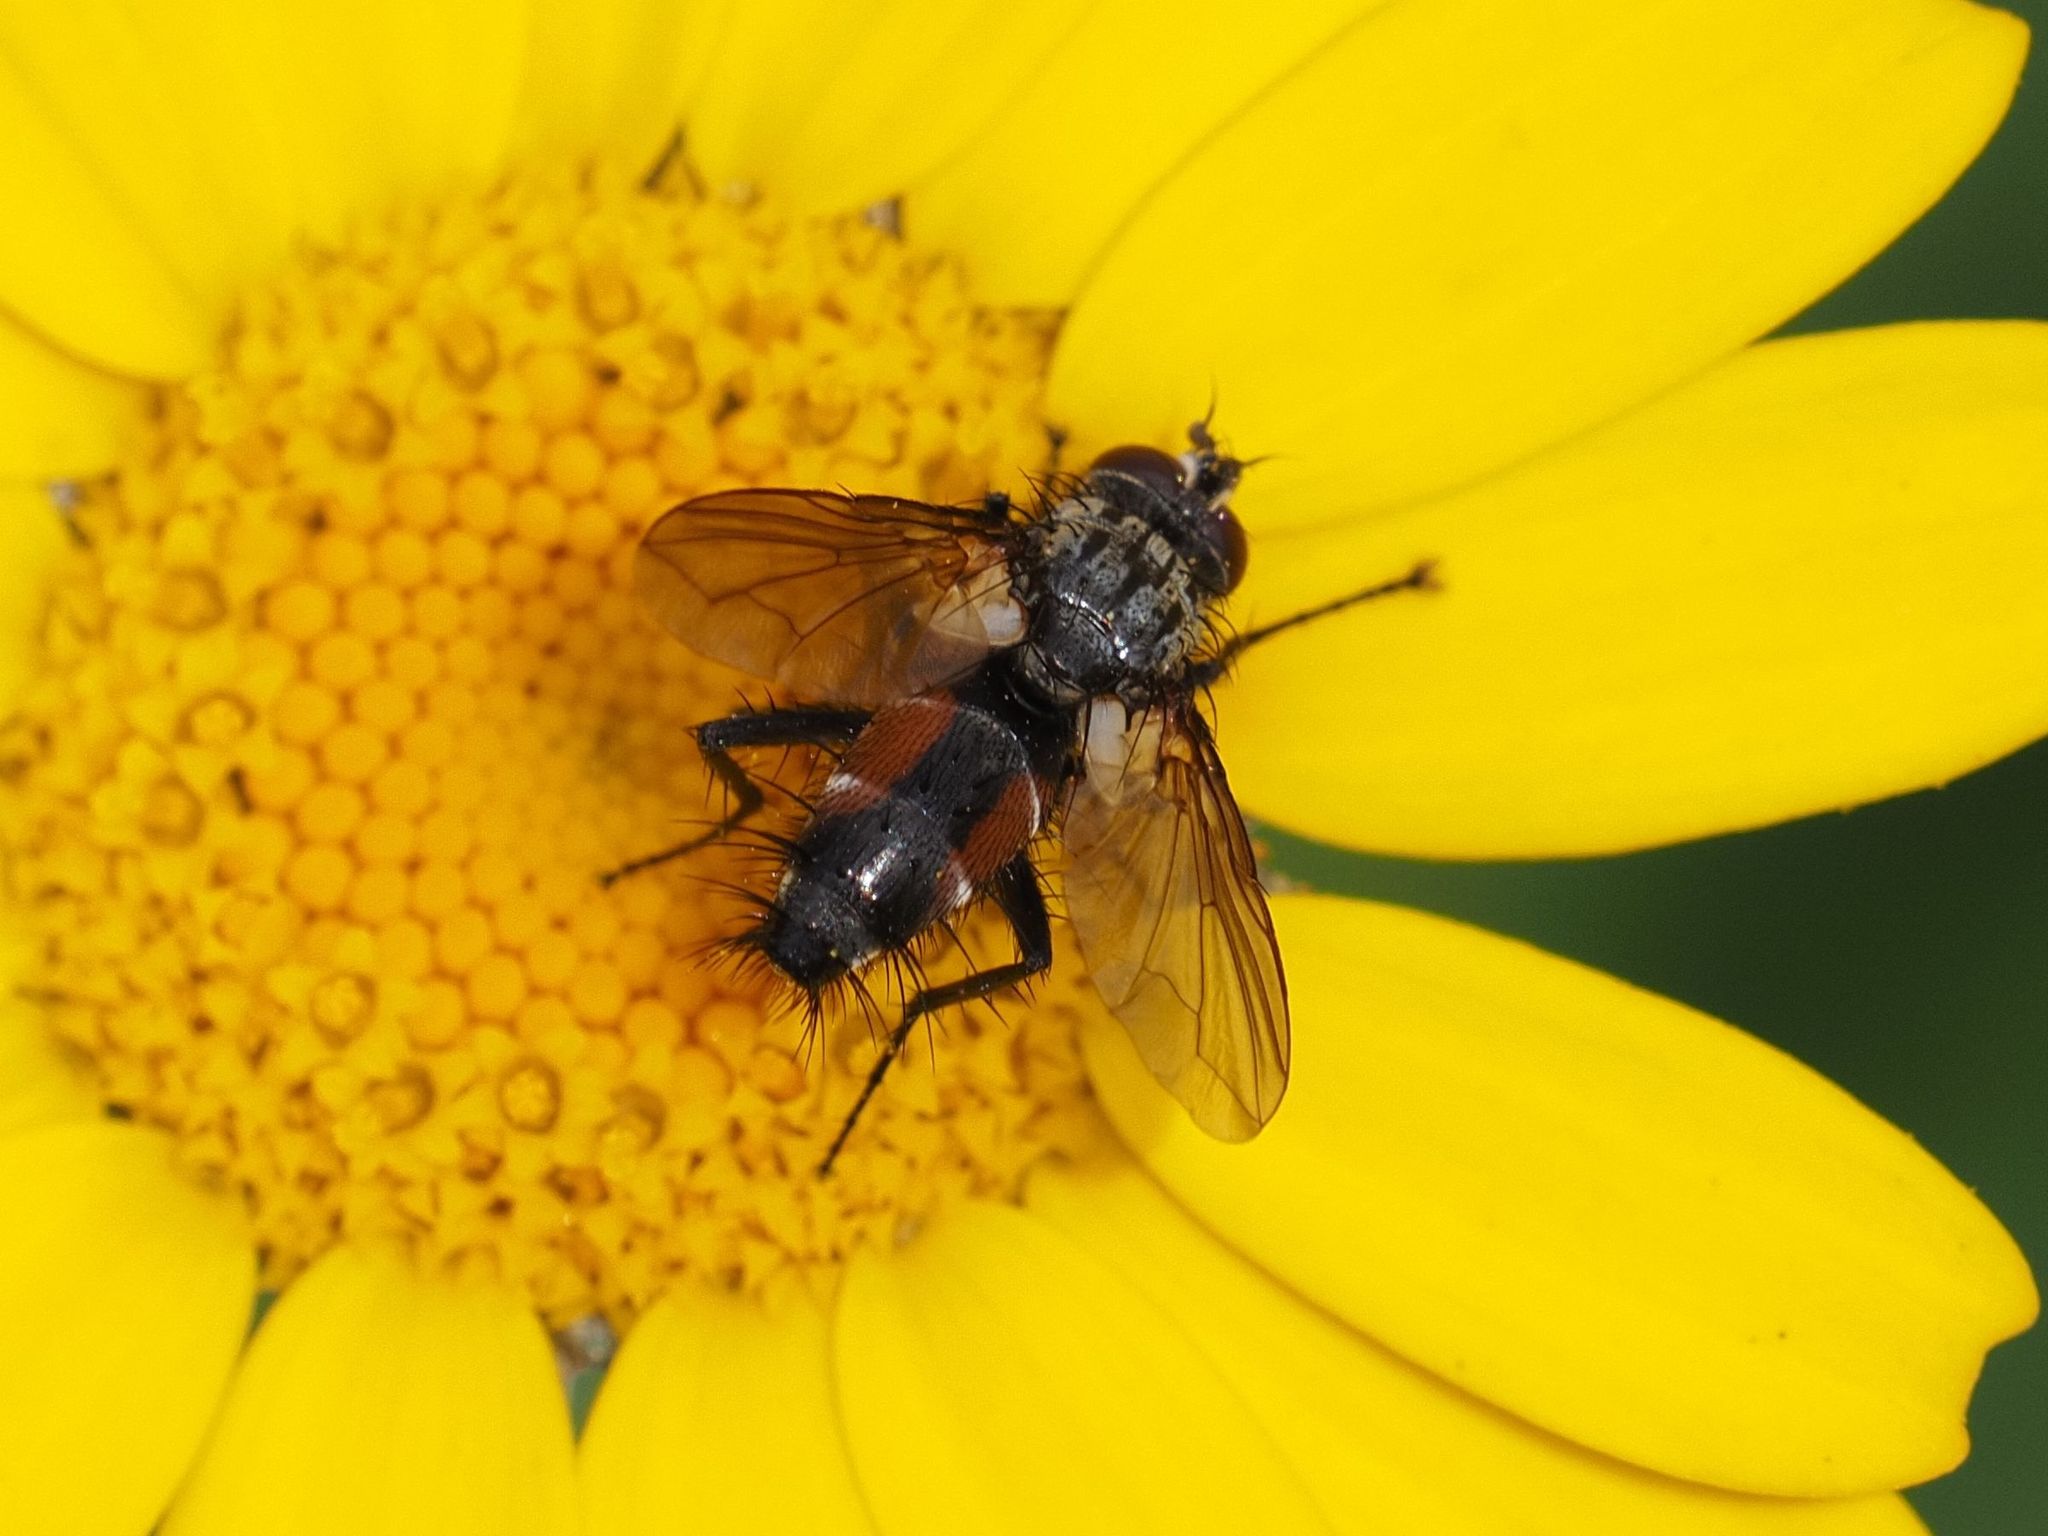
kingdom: Animalia
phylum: Arthropoda
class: Insecta
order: Diptera
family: Tachinidae
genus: Eriothrix
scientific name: Eriothrix rufomaculatus
